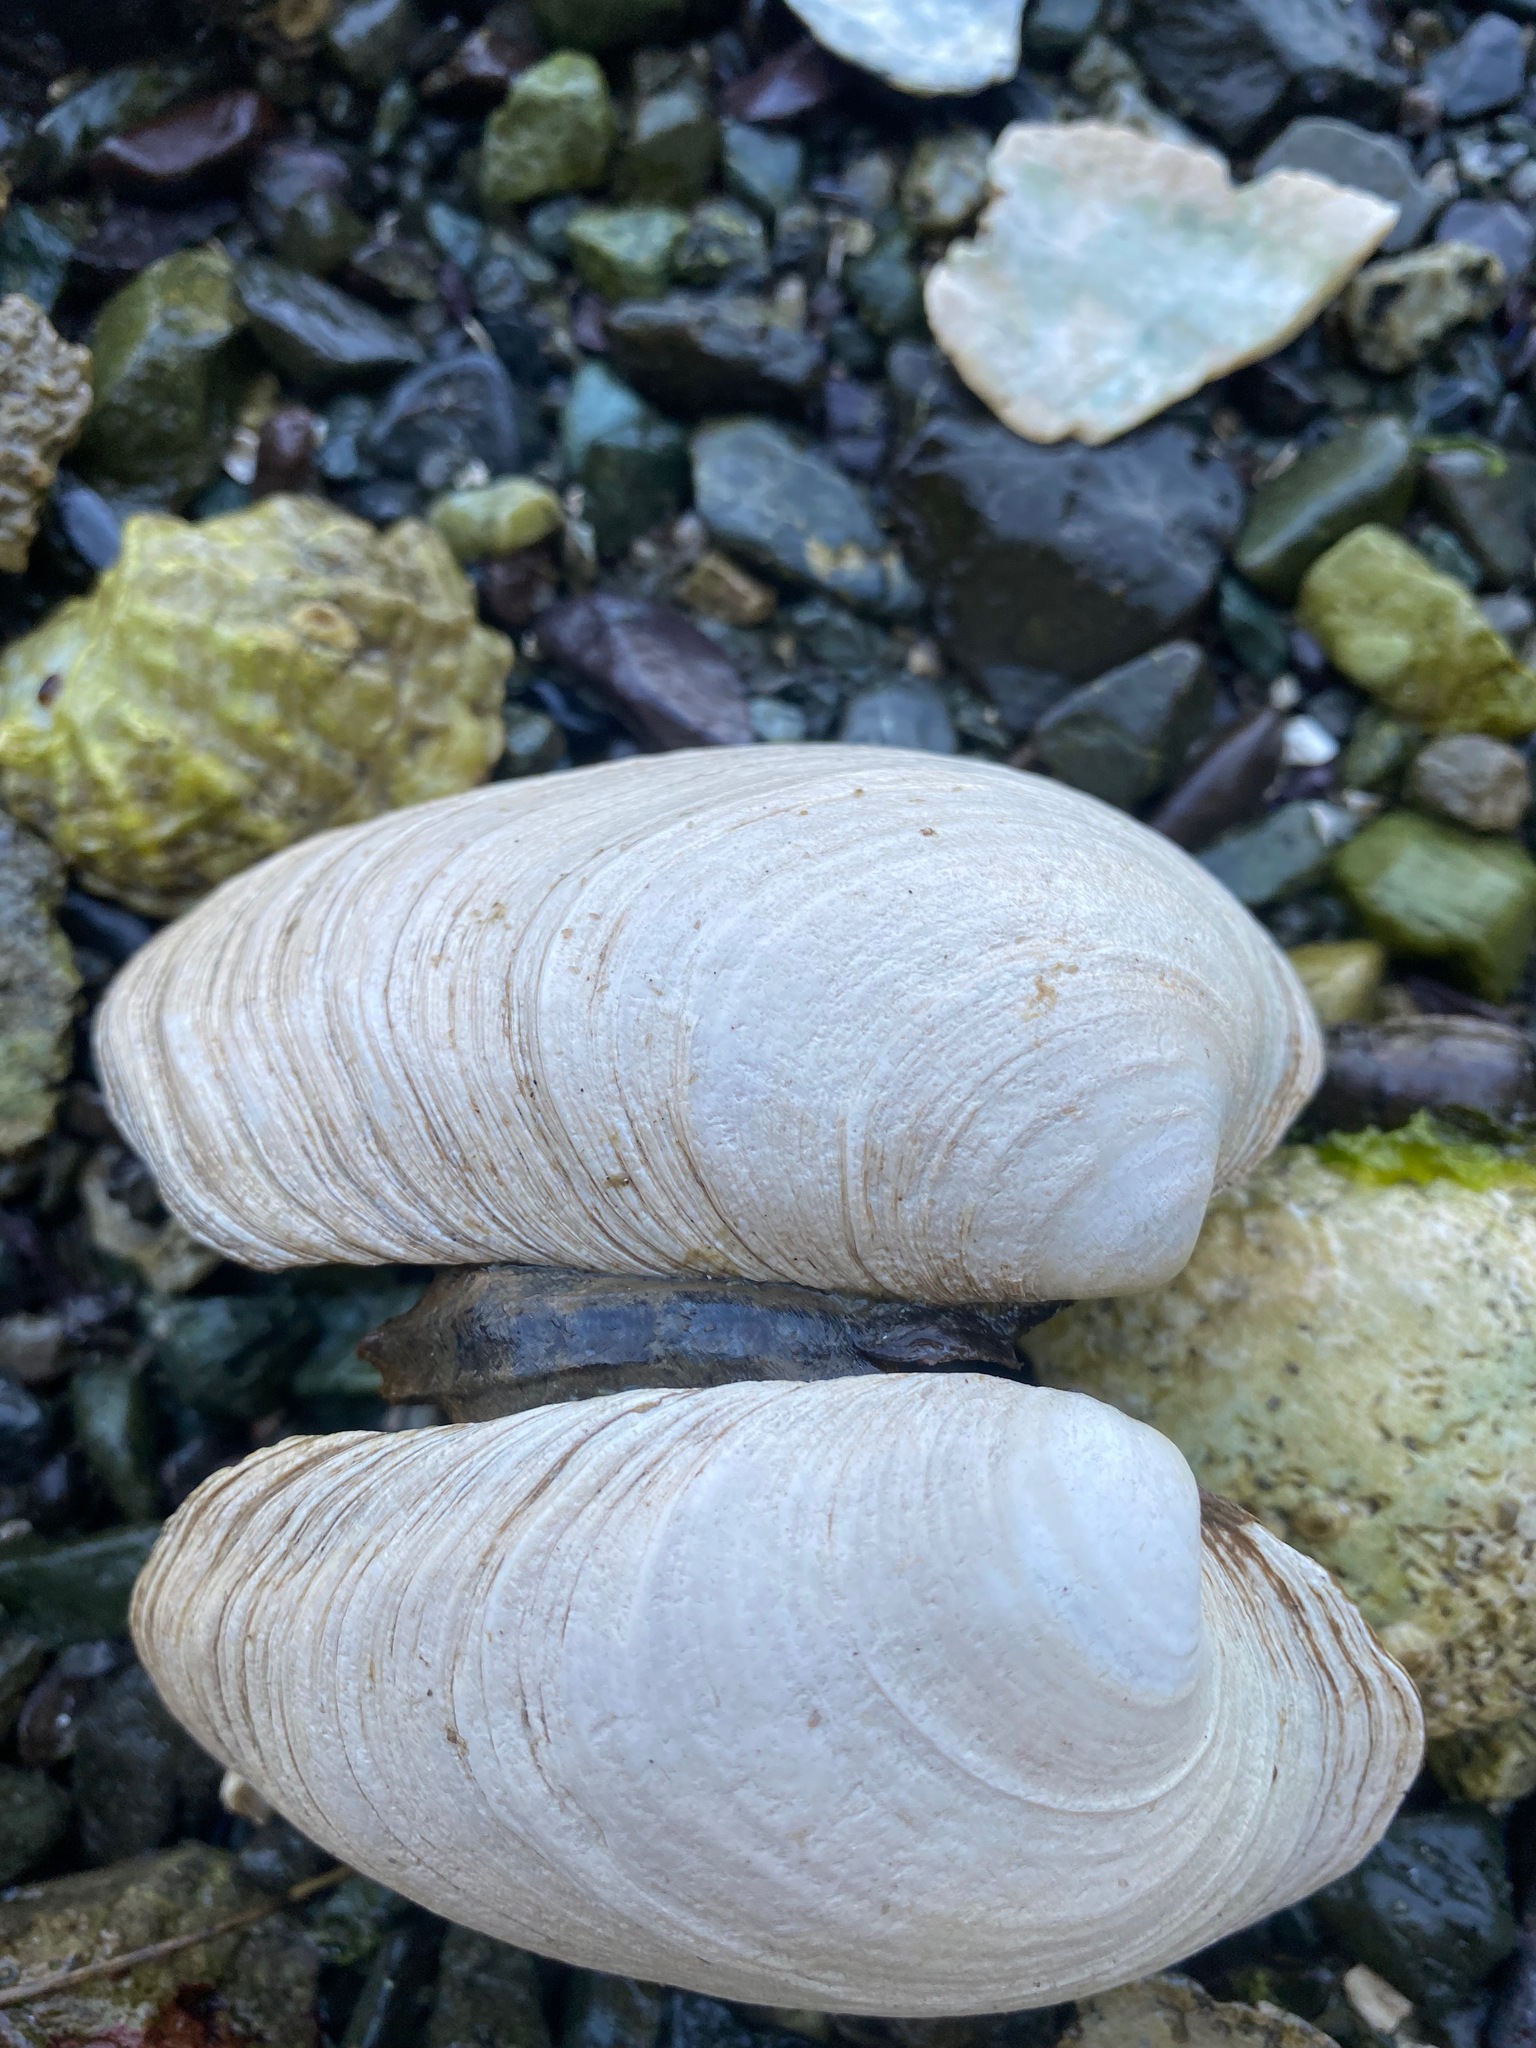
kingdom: Animalia
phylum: Mollusca
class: Bivalvia
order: Venerida
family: Veneridae
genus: Saxidomus
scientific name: Saxidomus gigantea
